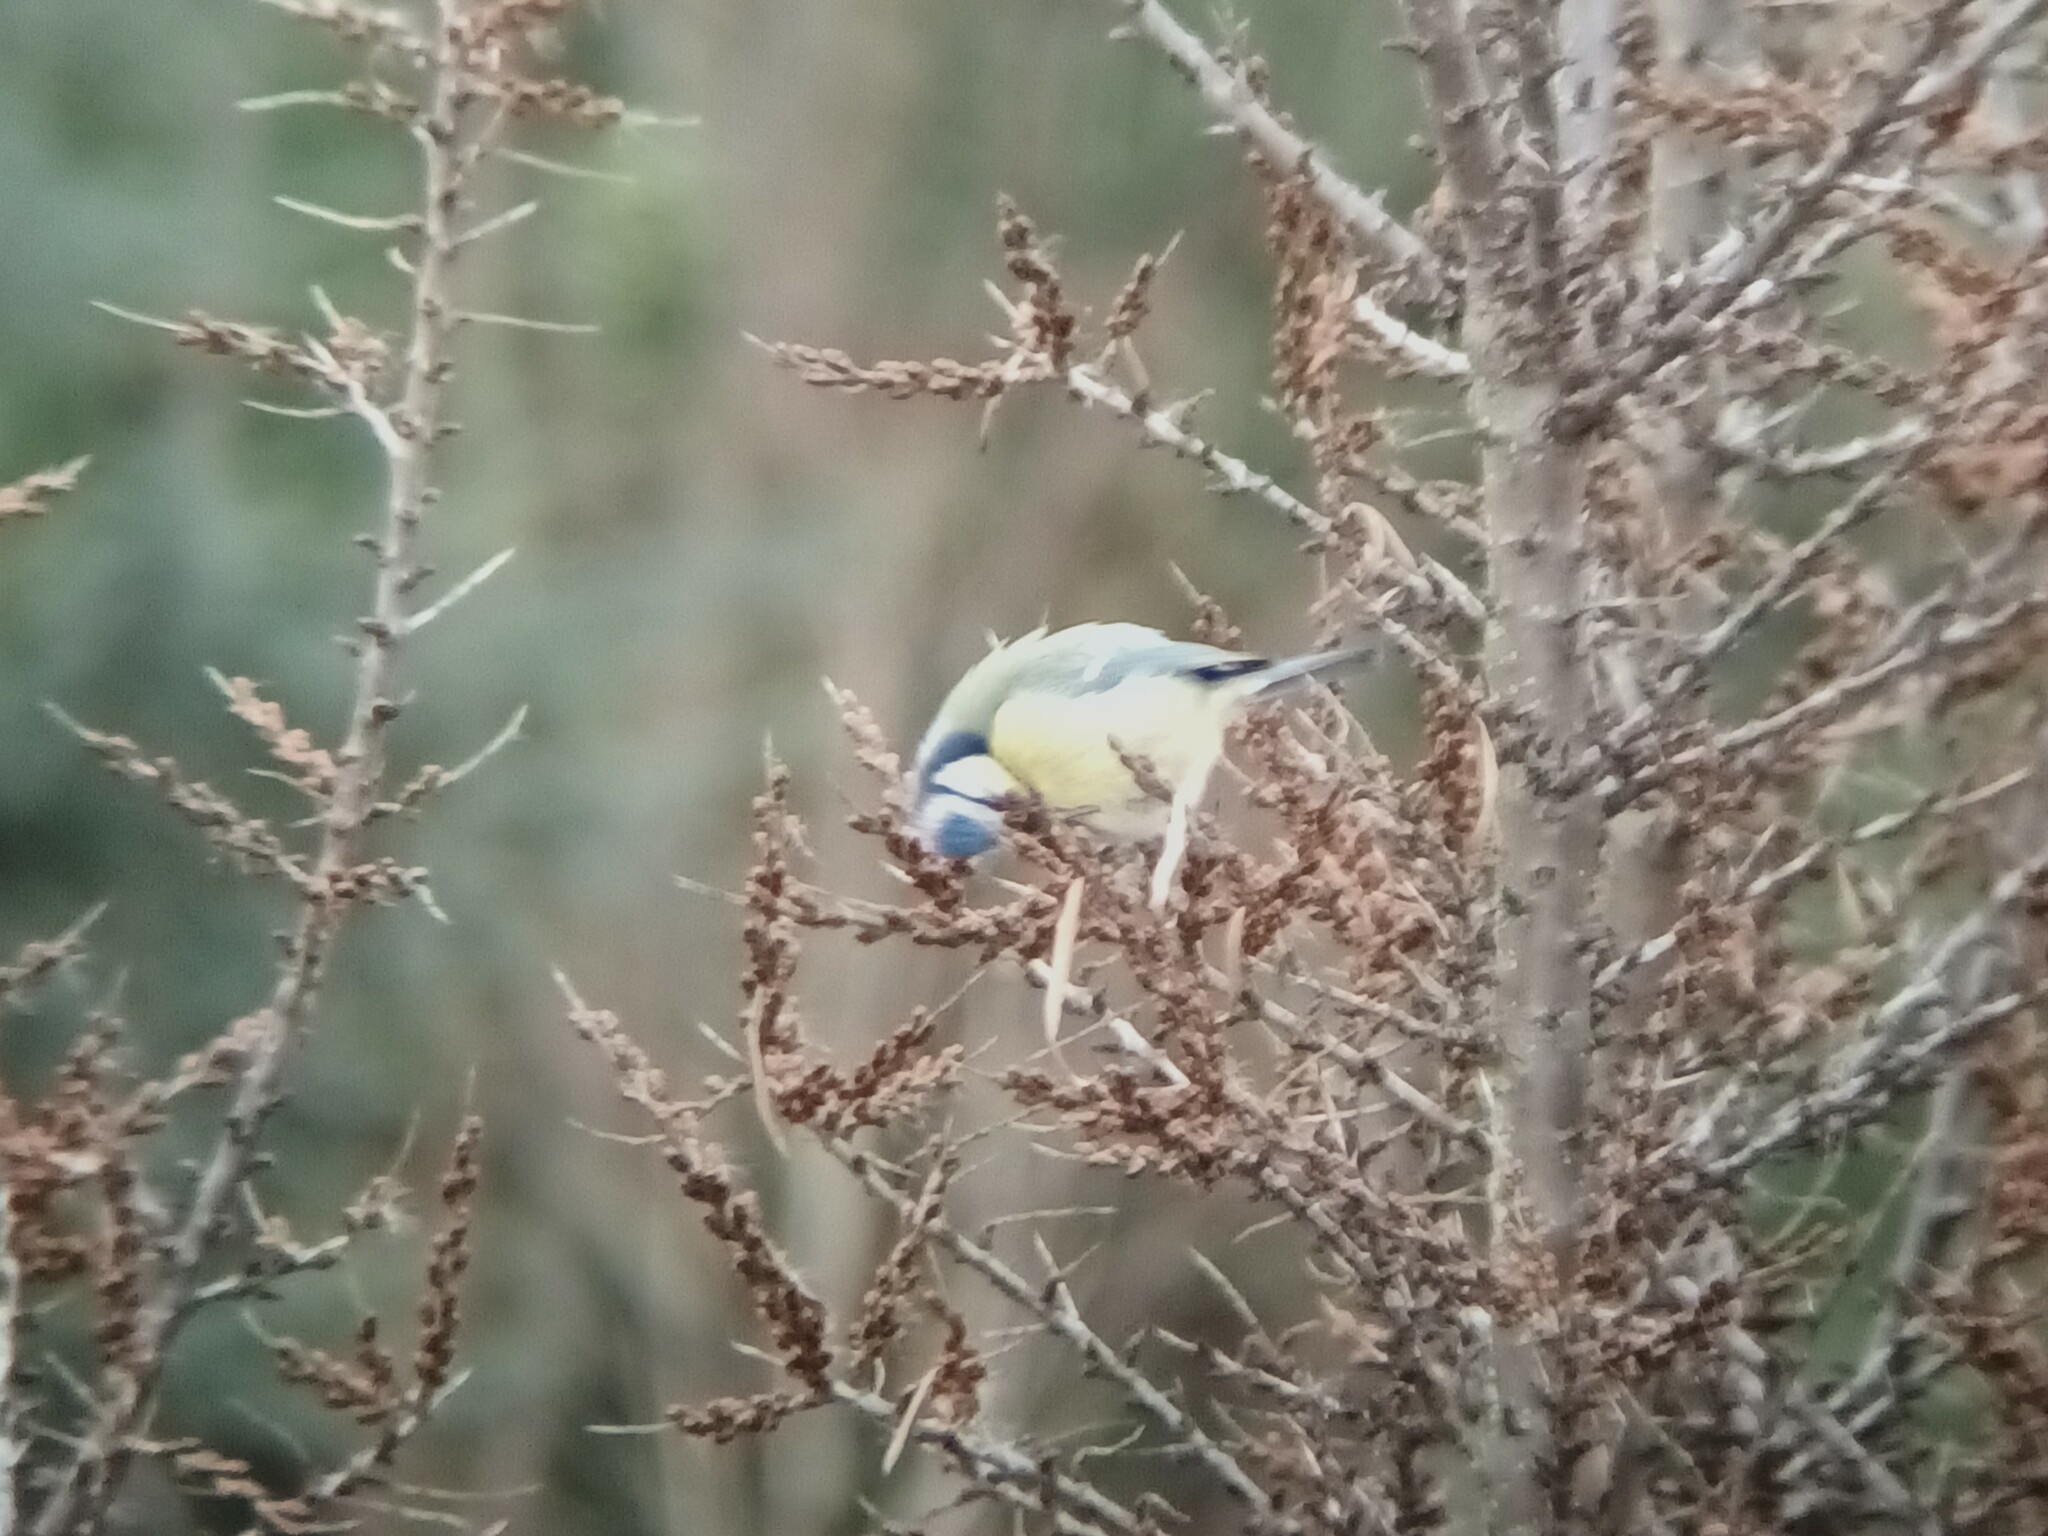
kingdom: Animalia
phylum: Chordata
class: Aves
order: Passeriformes
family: Paridae
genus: Cyanistes
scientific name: Cyanistes caeruleus
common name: Eurasian blue tit
